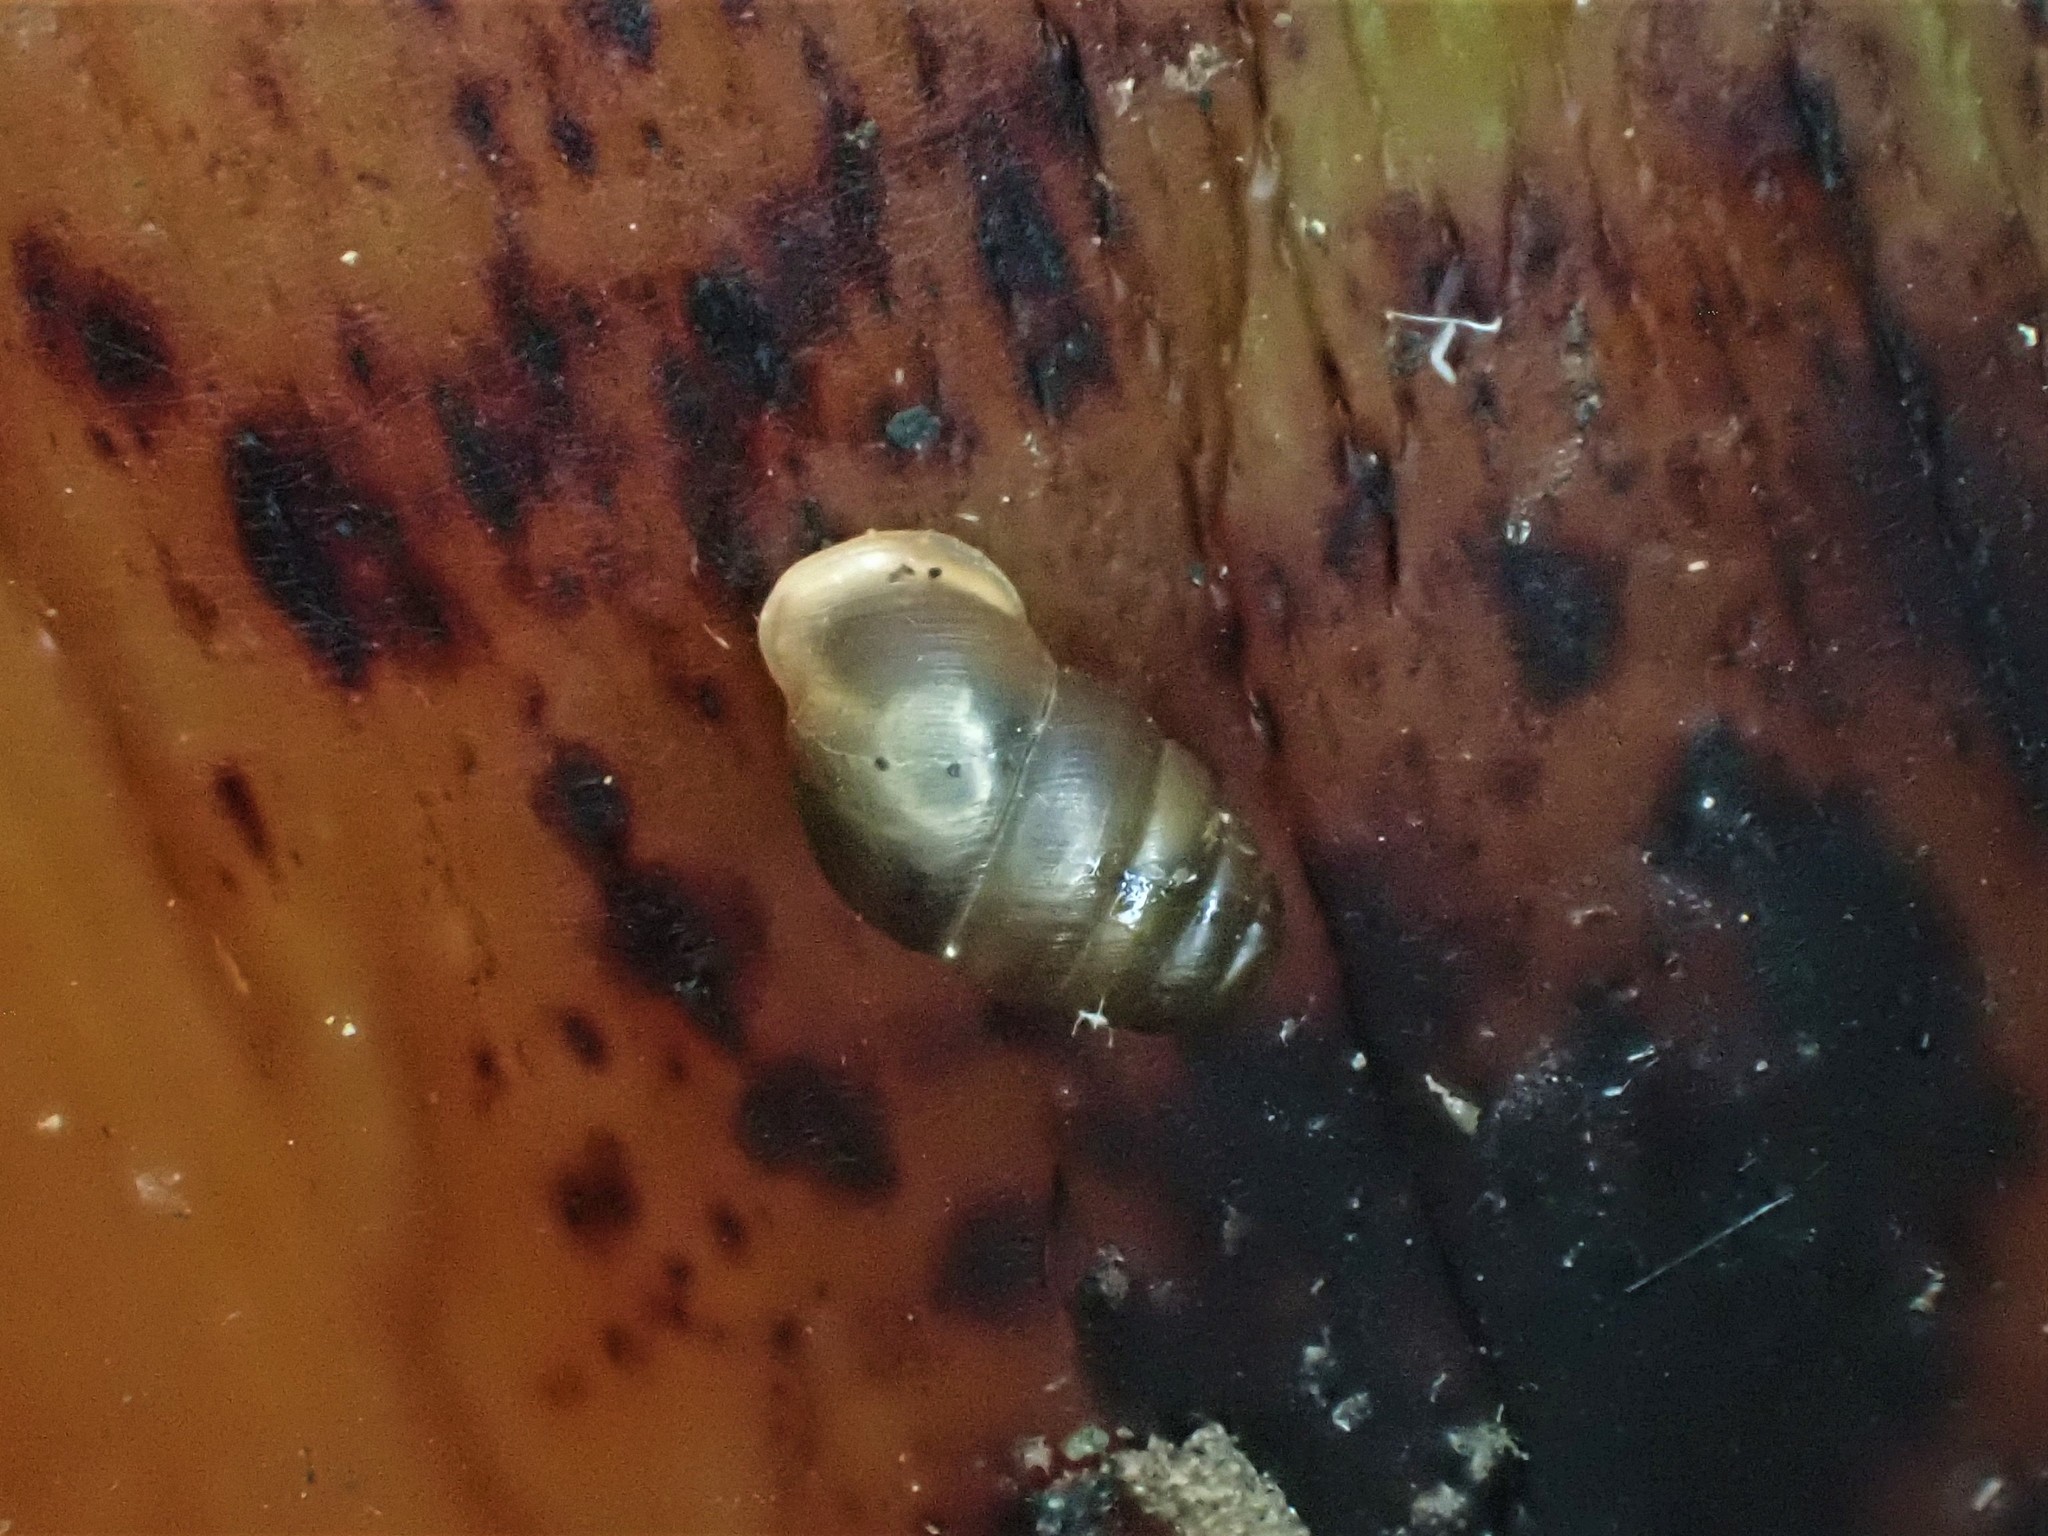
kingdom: Animalia
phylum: Mollusca
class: Gastropoda
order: Stylommatophora
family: Lauriidae
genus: Lauria
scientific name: Lauria cylindracea
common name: Common chrysalis snail
